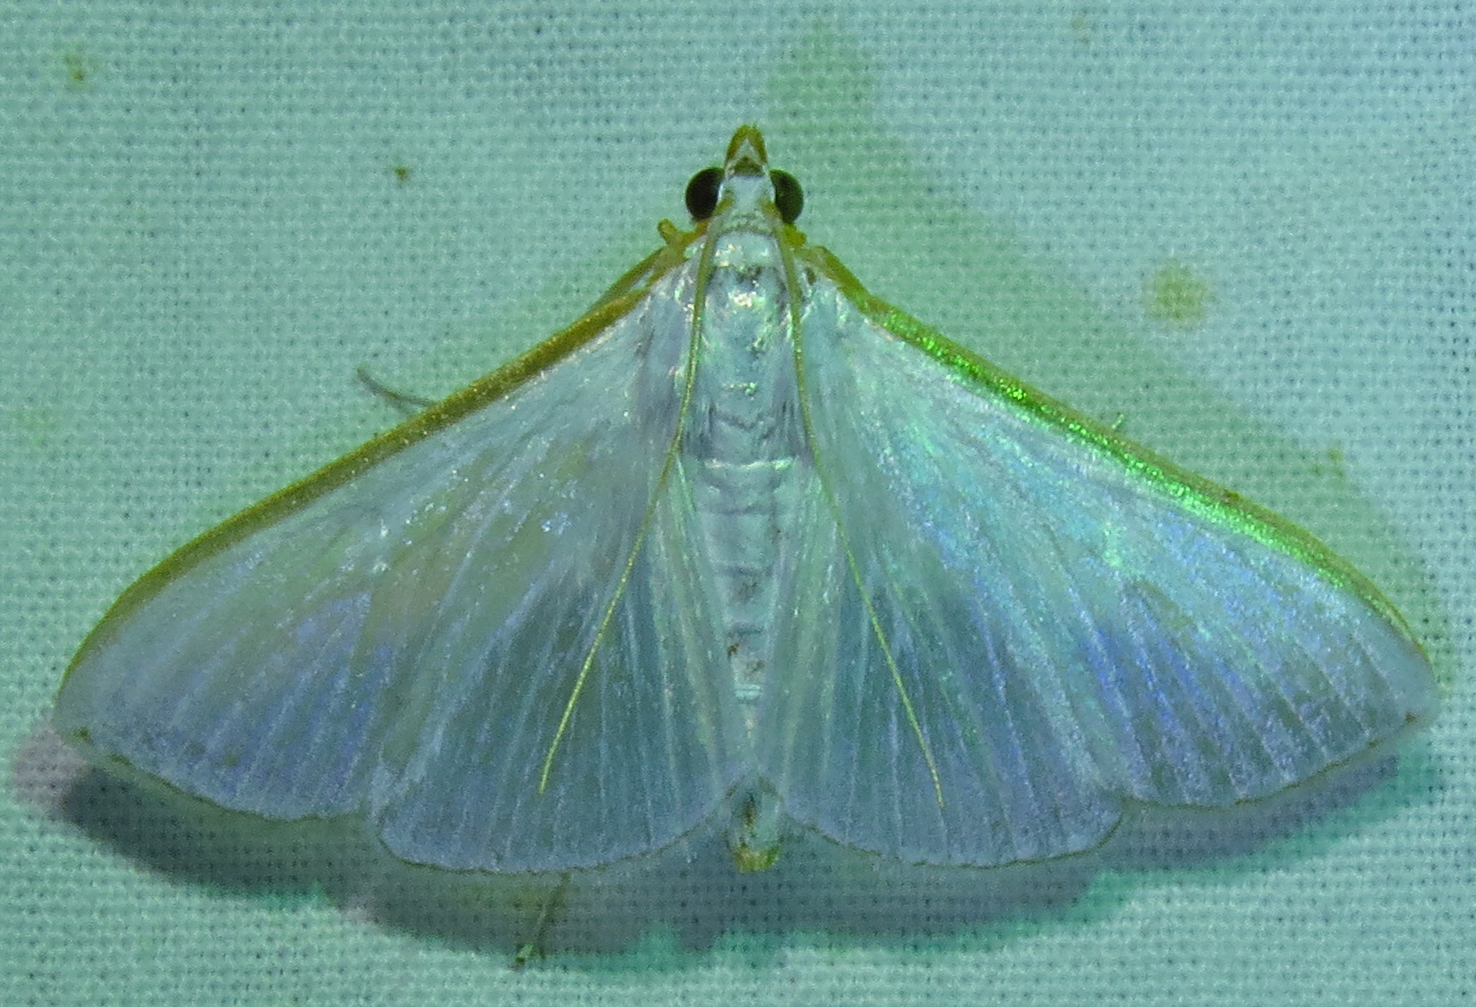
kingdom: Animalia
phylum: Arthropoda
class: Insecta
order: Lepidoptera
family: Crambidae
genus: Diaphania
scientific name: Diaphania costata
